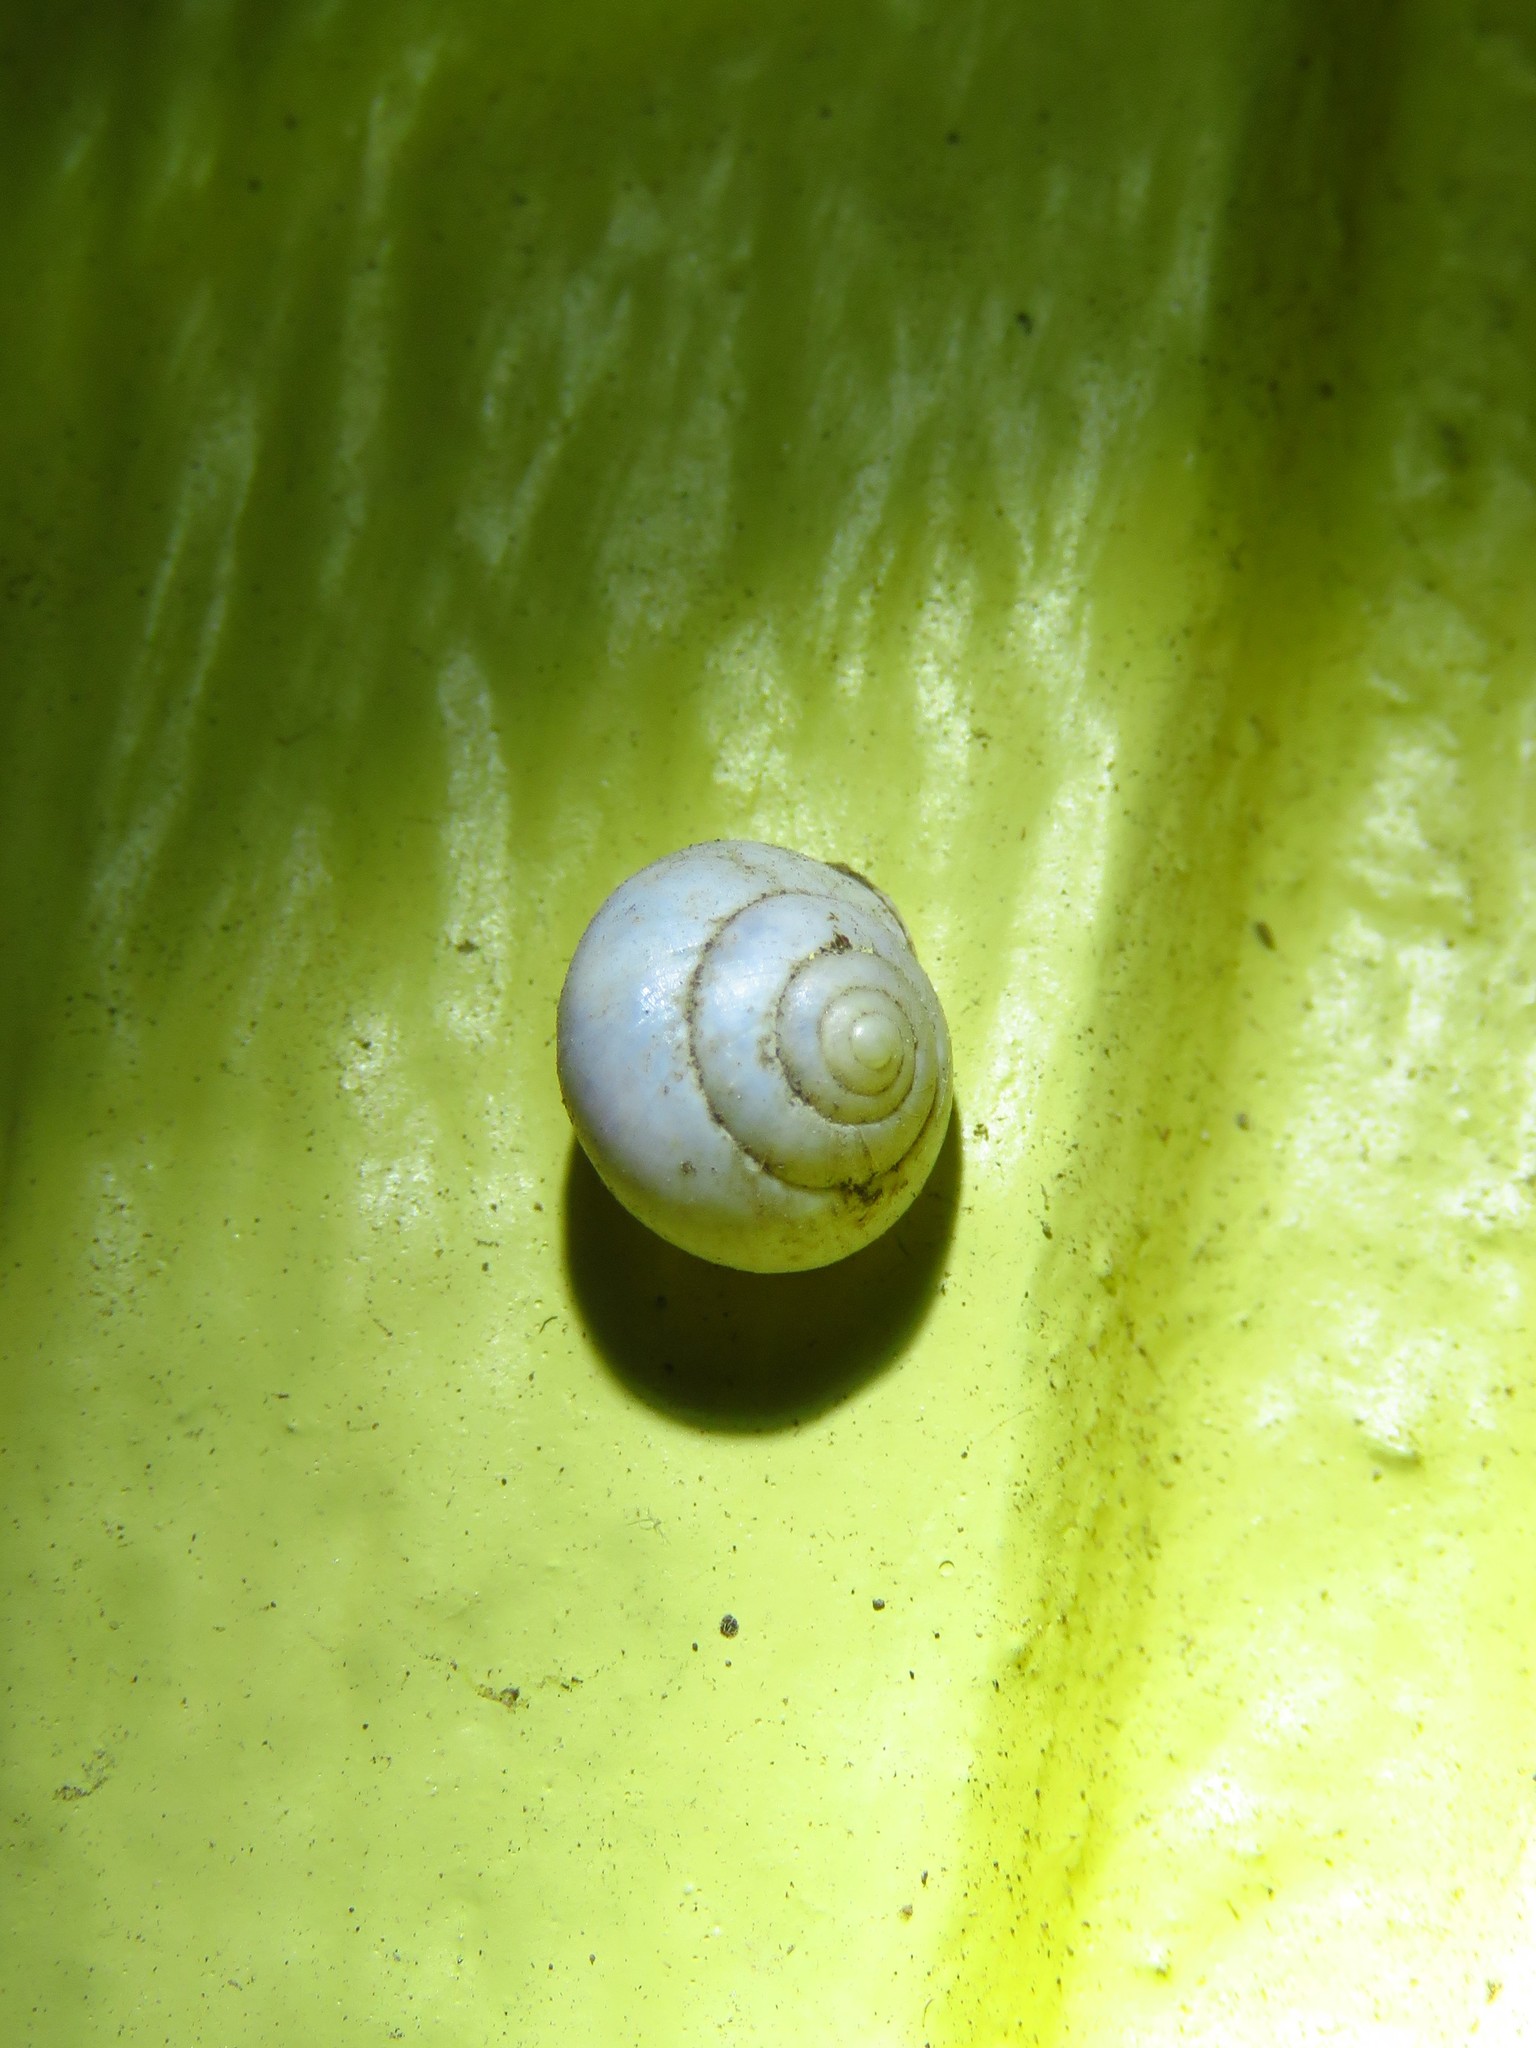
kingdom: Animalia
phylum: Mollusca
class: Gastropoda
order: Cycloneritida
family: Helicinidae
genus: Helicina
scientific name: Helicina orbiculata
